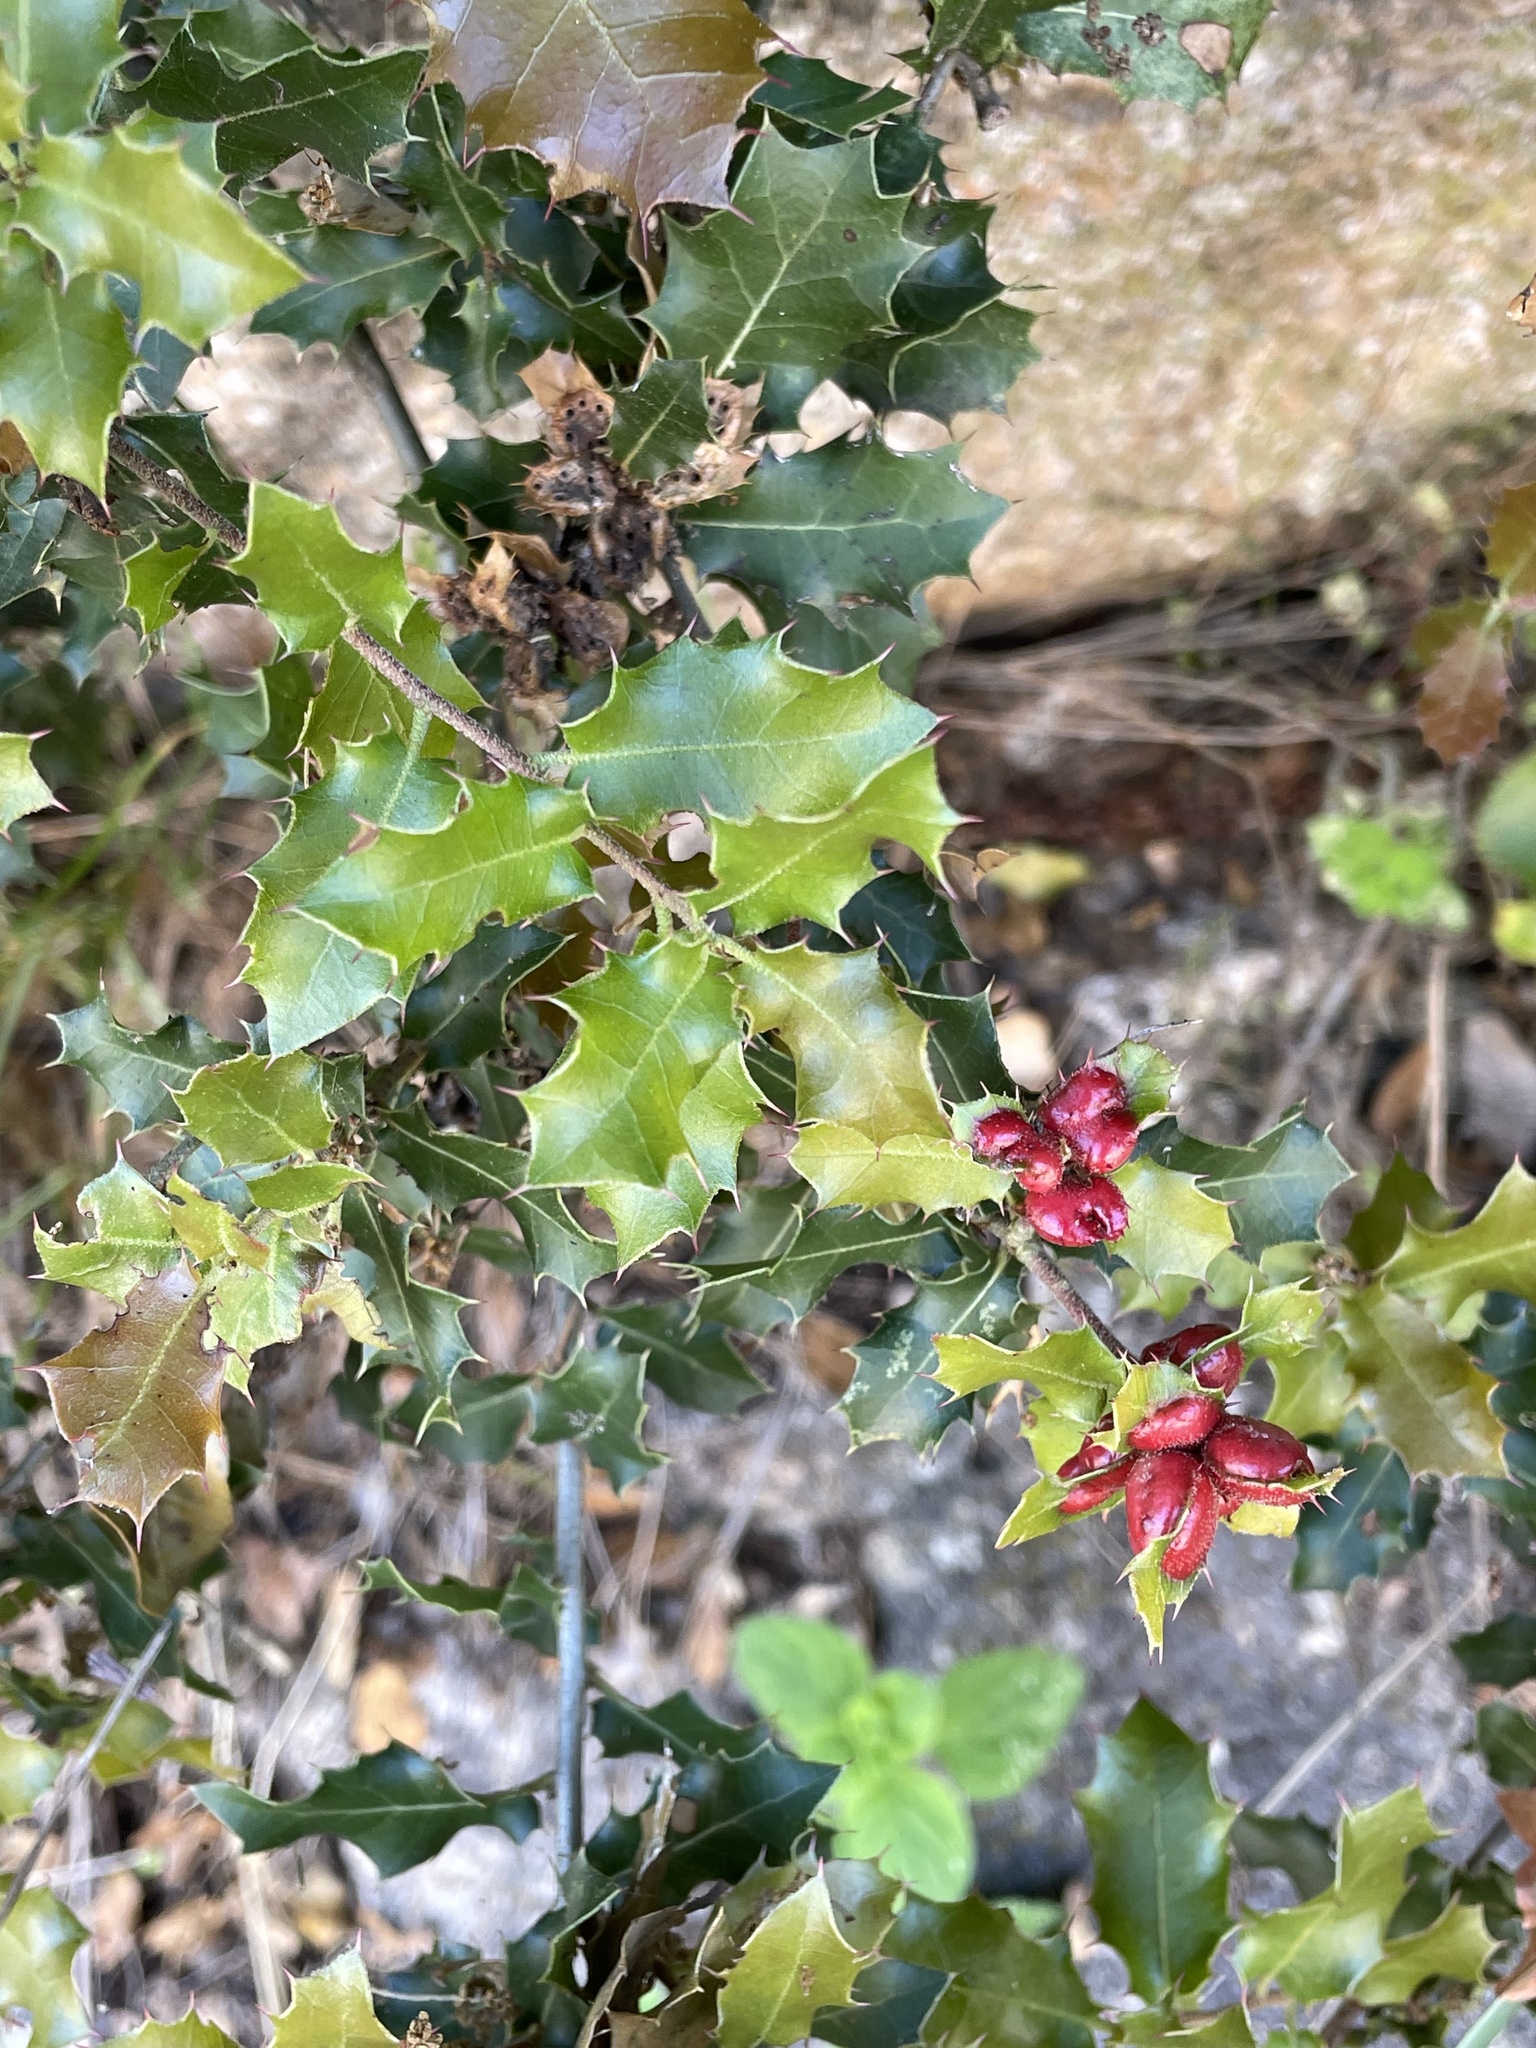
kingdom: Animalia
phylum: Arthropoda
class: Insecta
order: Hymenoptera
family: Cynipidae
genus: Plagiotrochus
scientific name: Plagiotrochus quercusilicis
